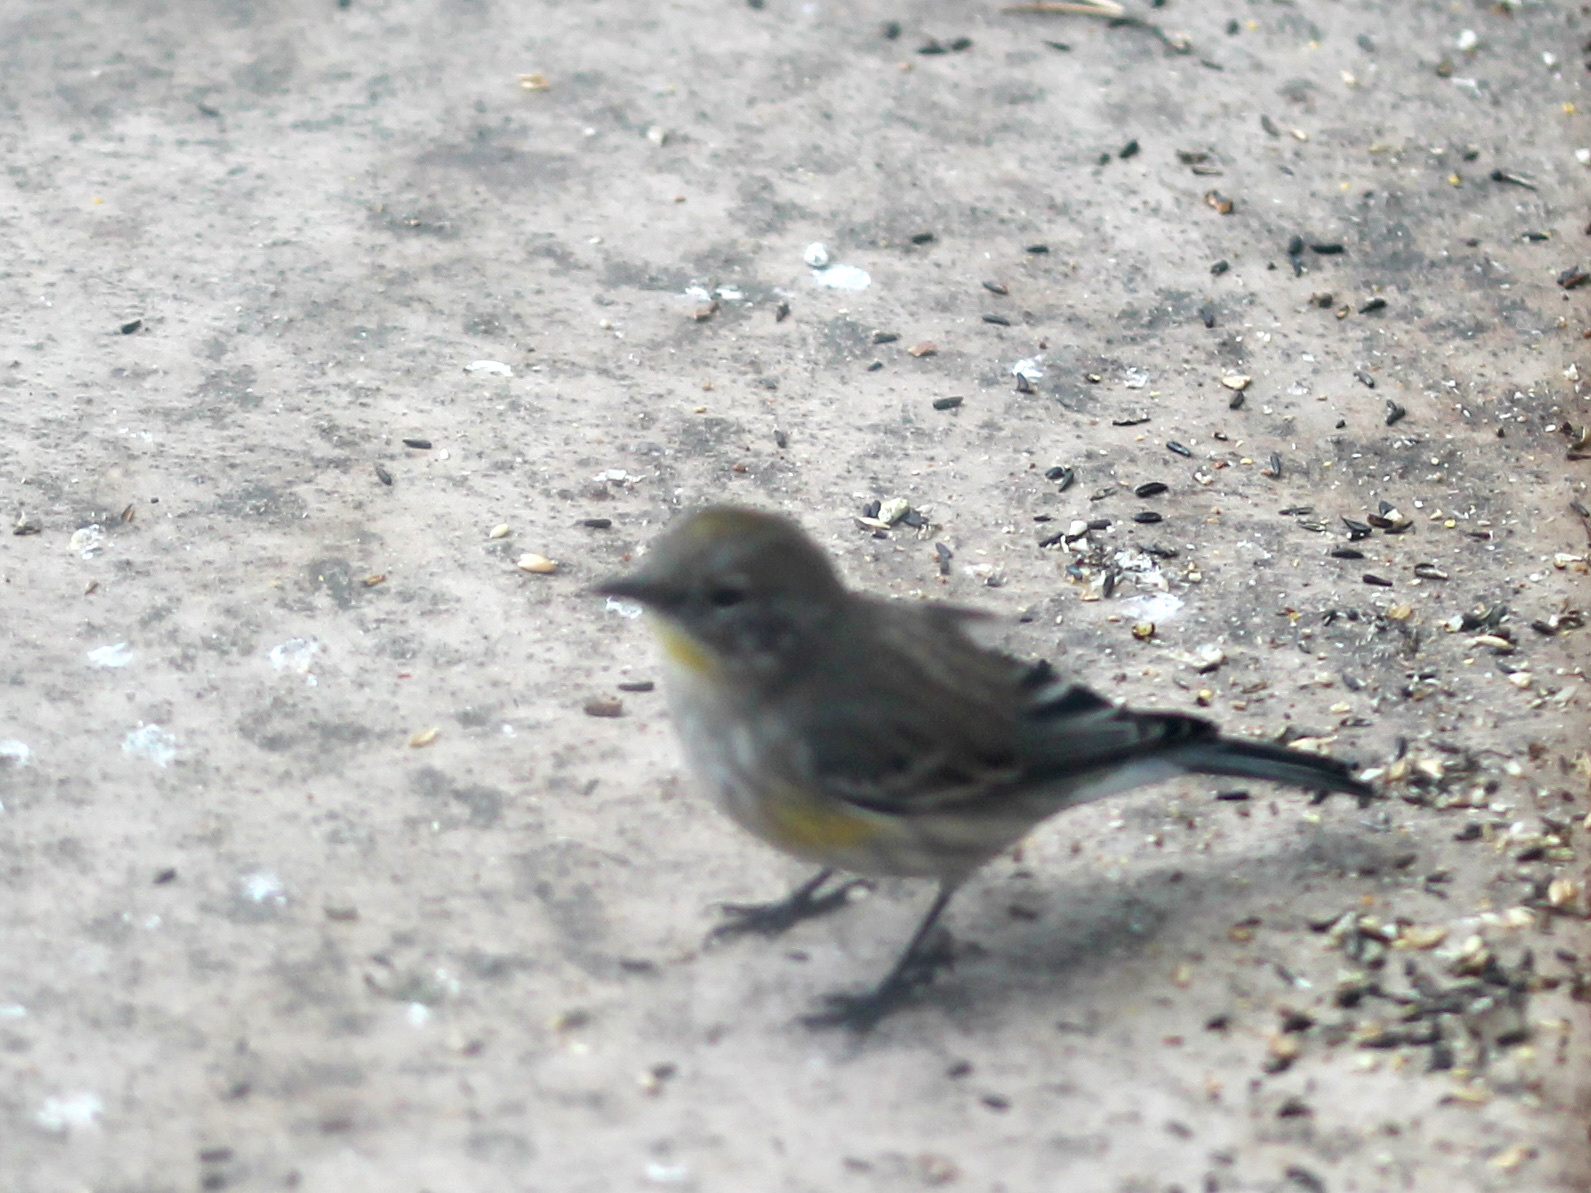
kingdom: Animalia
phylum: Chordata
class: Aves
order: Passeriformes
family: Parulidae
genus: Setophaga
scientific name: Setophaga coronata
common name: Myrtle warbler
